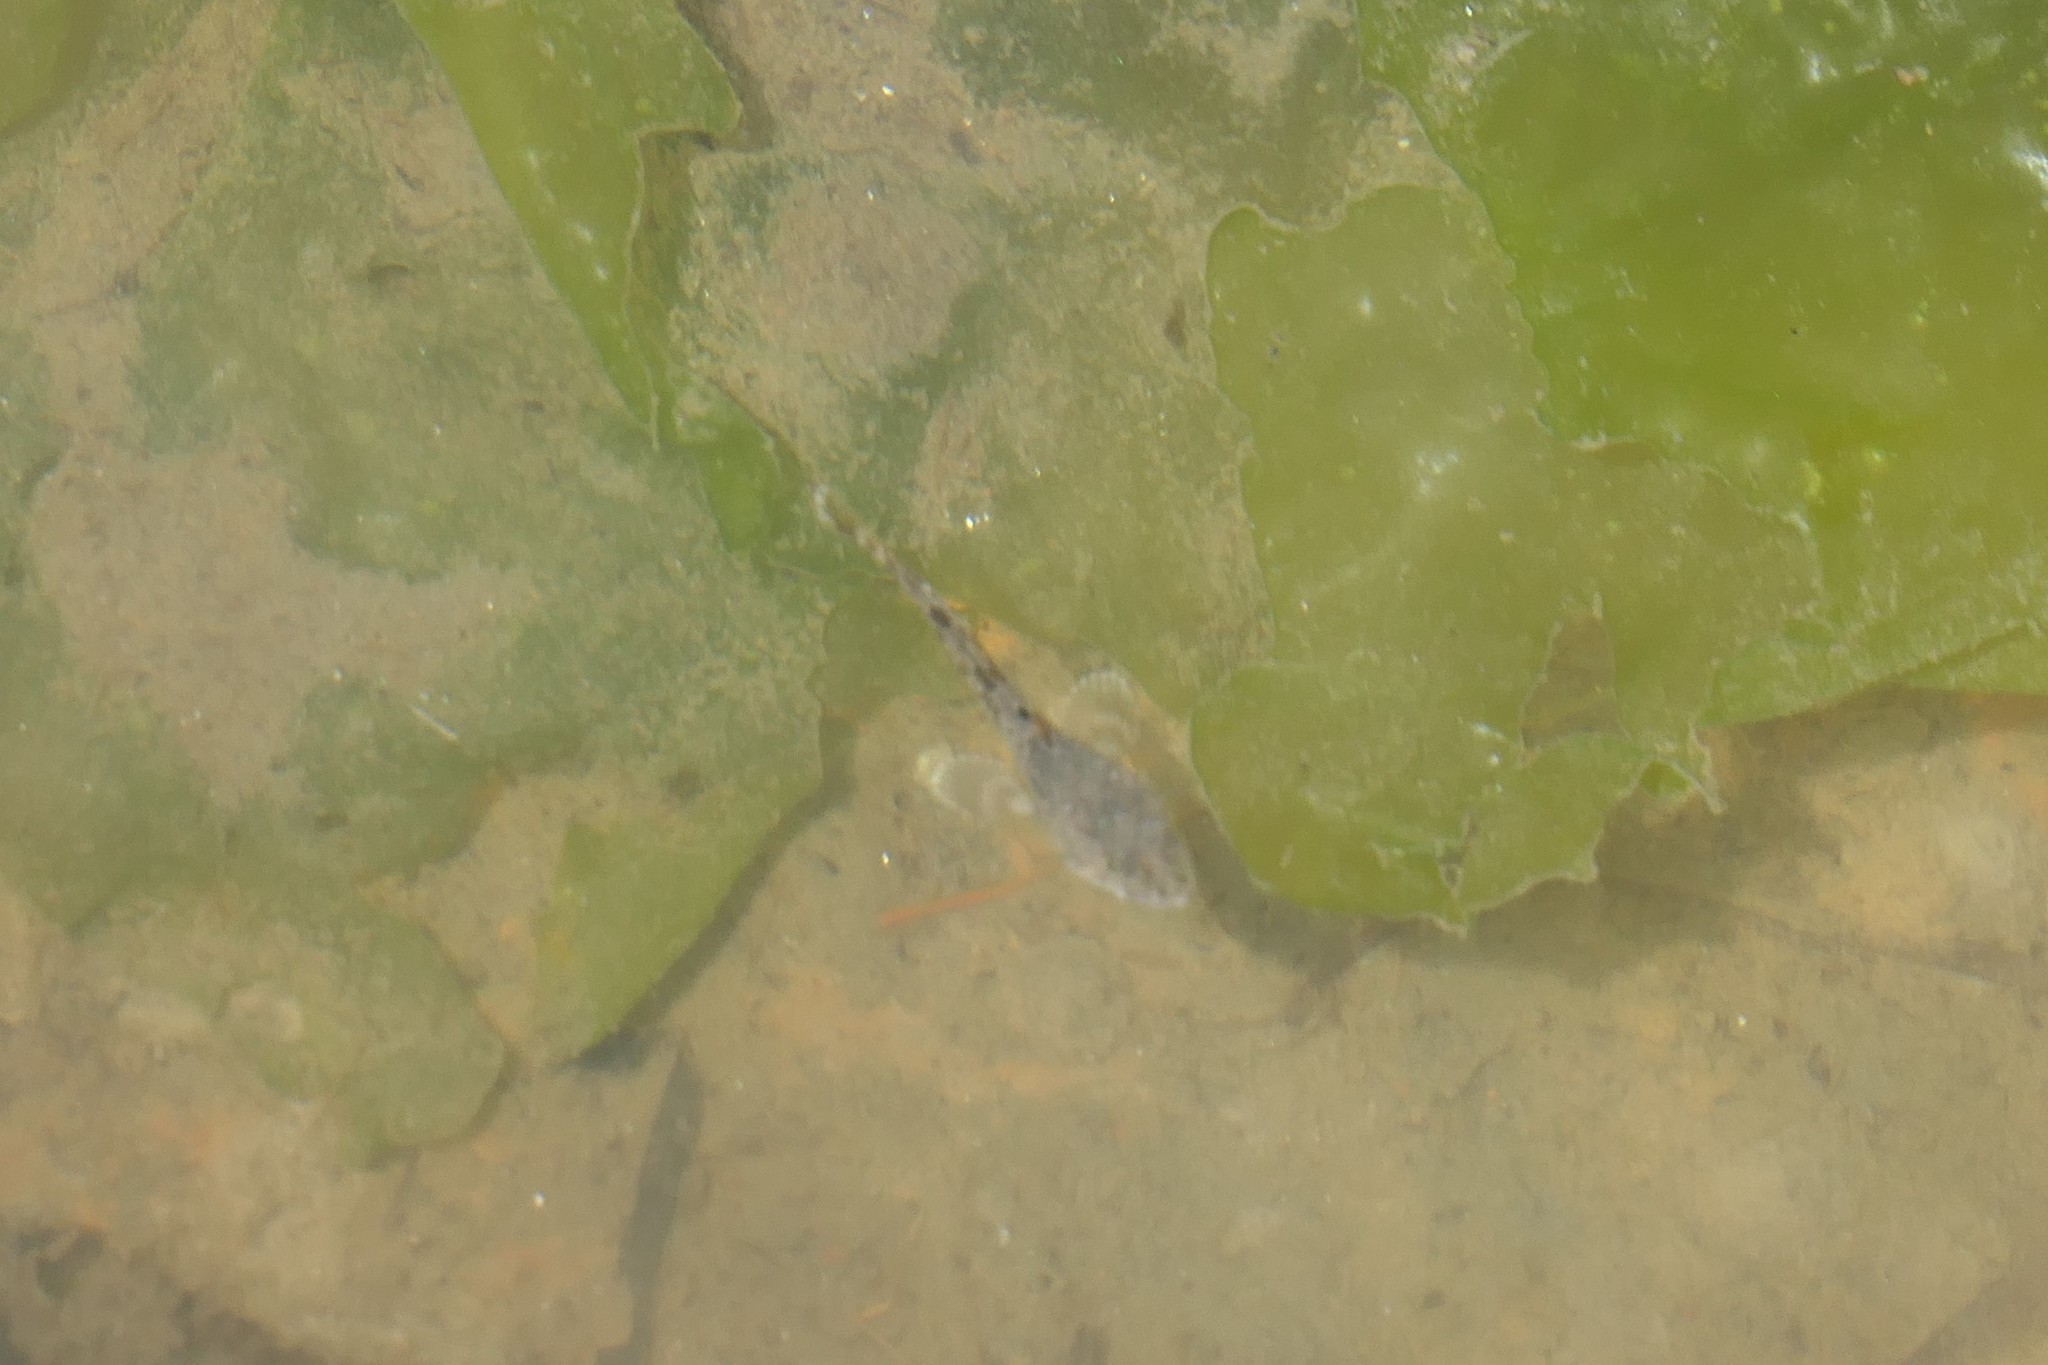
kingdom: Animalia
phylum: Chordata
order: Scorpaeniformes
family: Cottidae
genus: Leptocottus
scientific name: Leptocottus armatus
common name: Pacific staghorn sculpin
